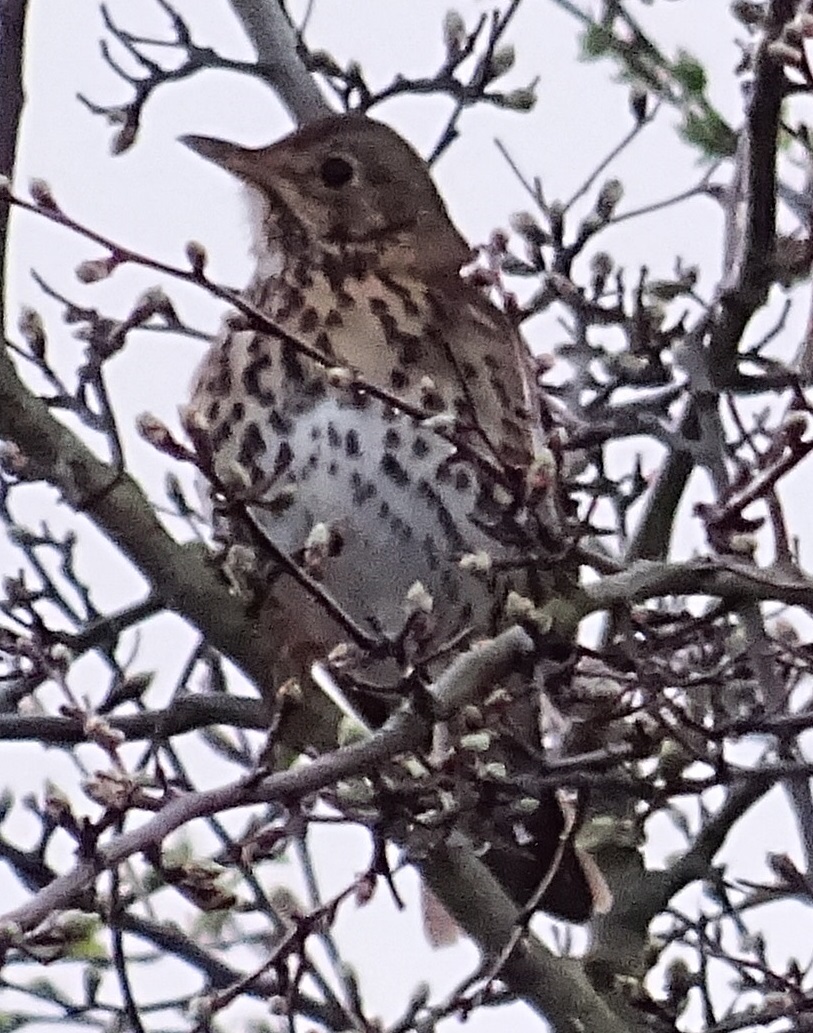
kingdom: Animalia
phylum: Chordata
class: Aves
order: Passeriformes
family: Turdidae
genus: Turdus
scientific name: Turdus philomelos
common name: Song thrush
